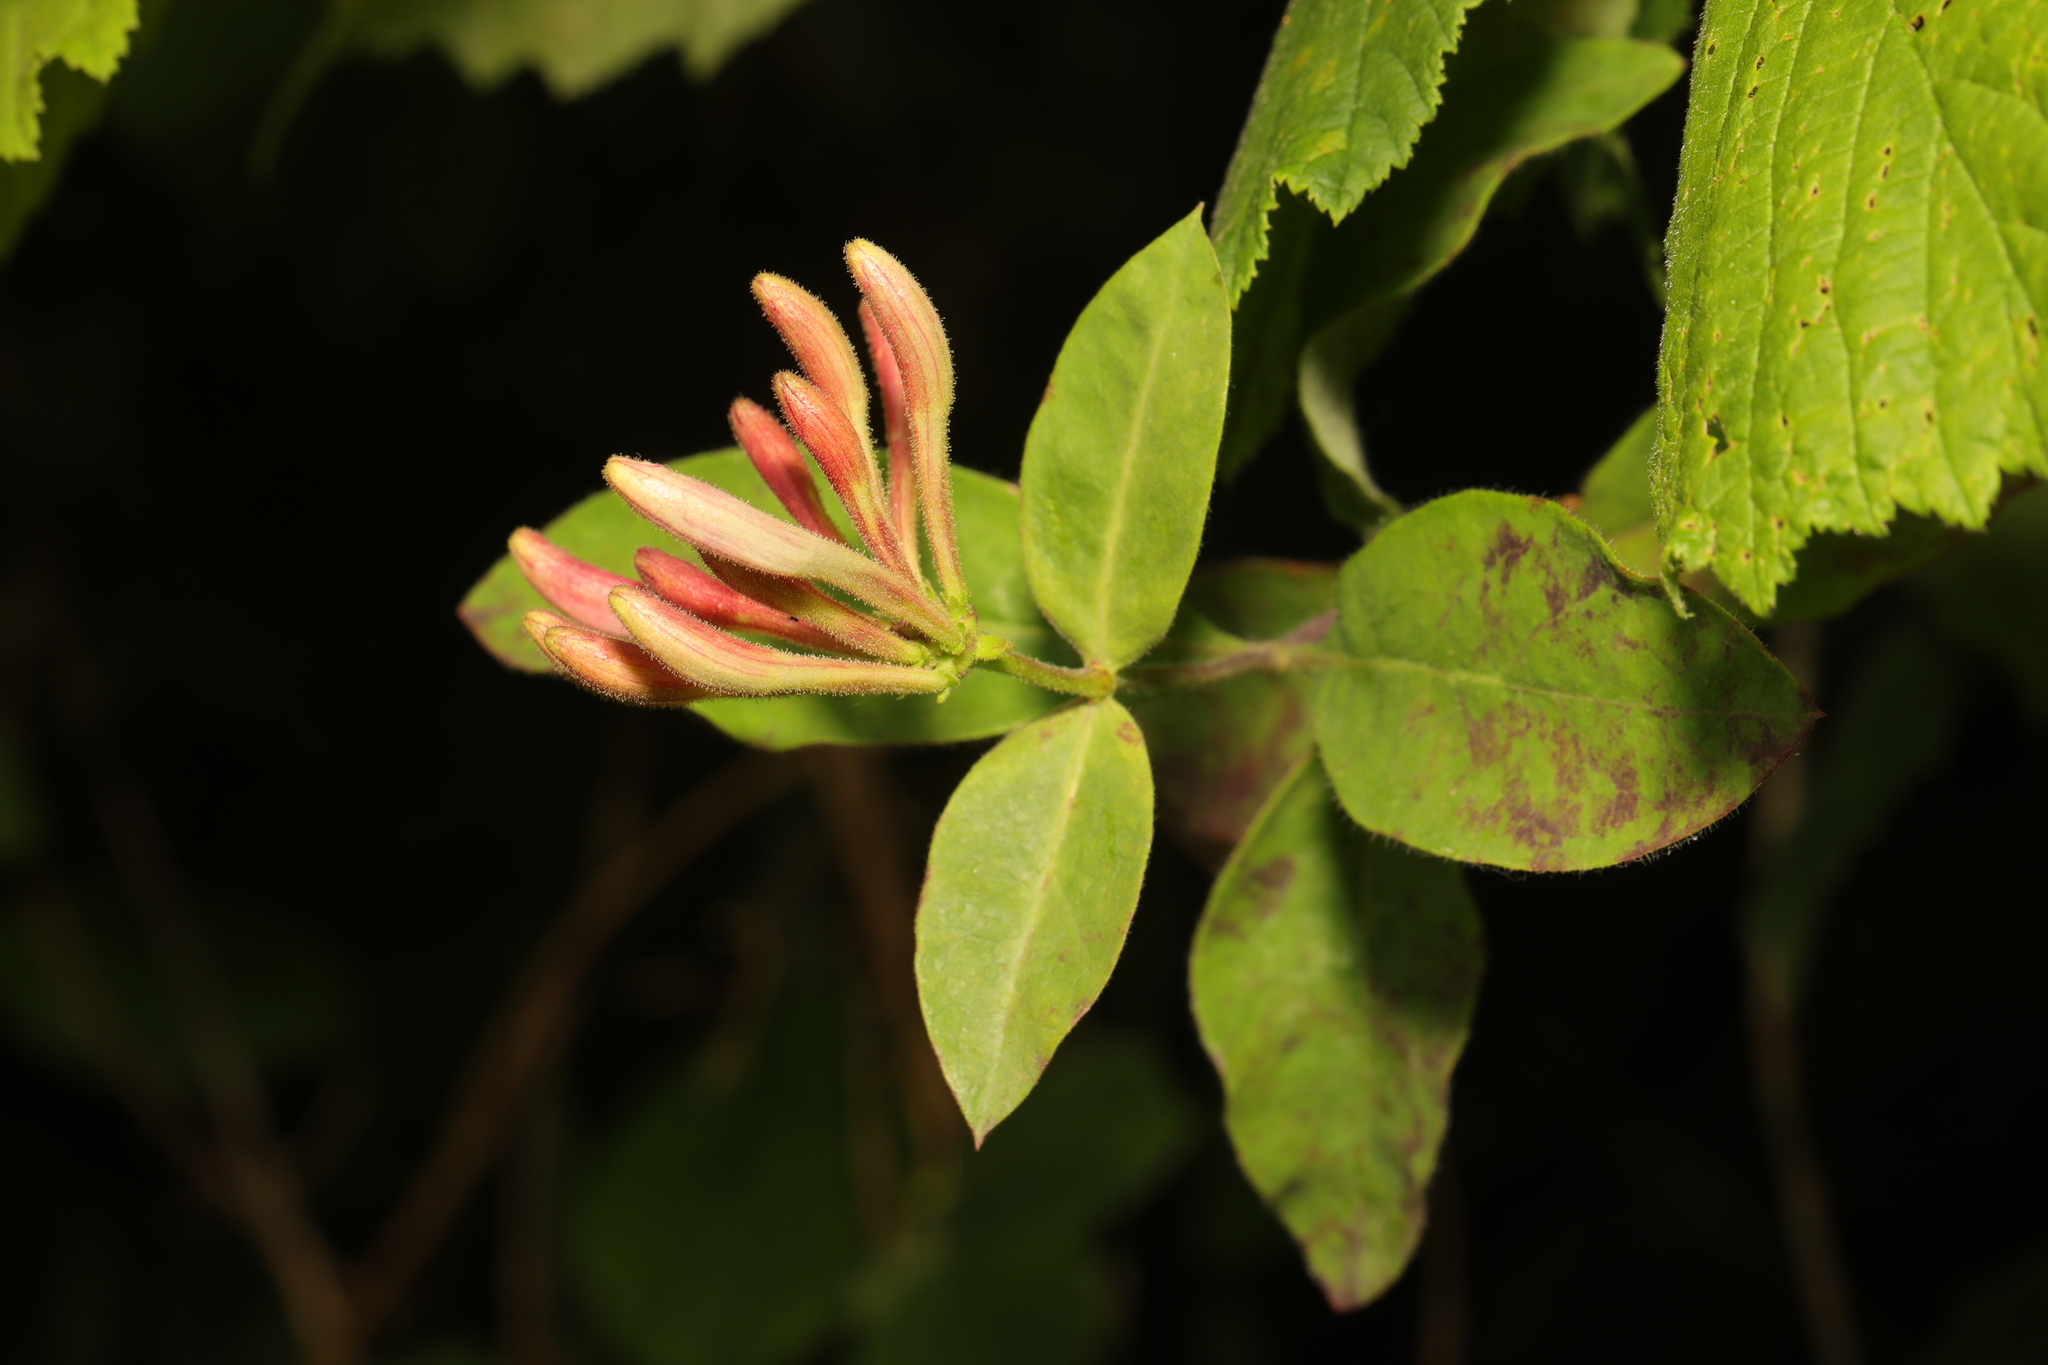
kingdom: Plantae
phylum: Tracheophyta
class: Magnoliopsida
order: Dipsacales
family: Caprifoliaceae
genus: Lonicera
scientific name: Lonicera periclymenum
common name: European honeysuckle
